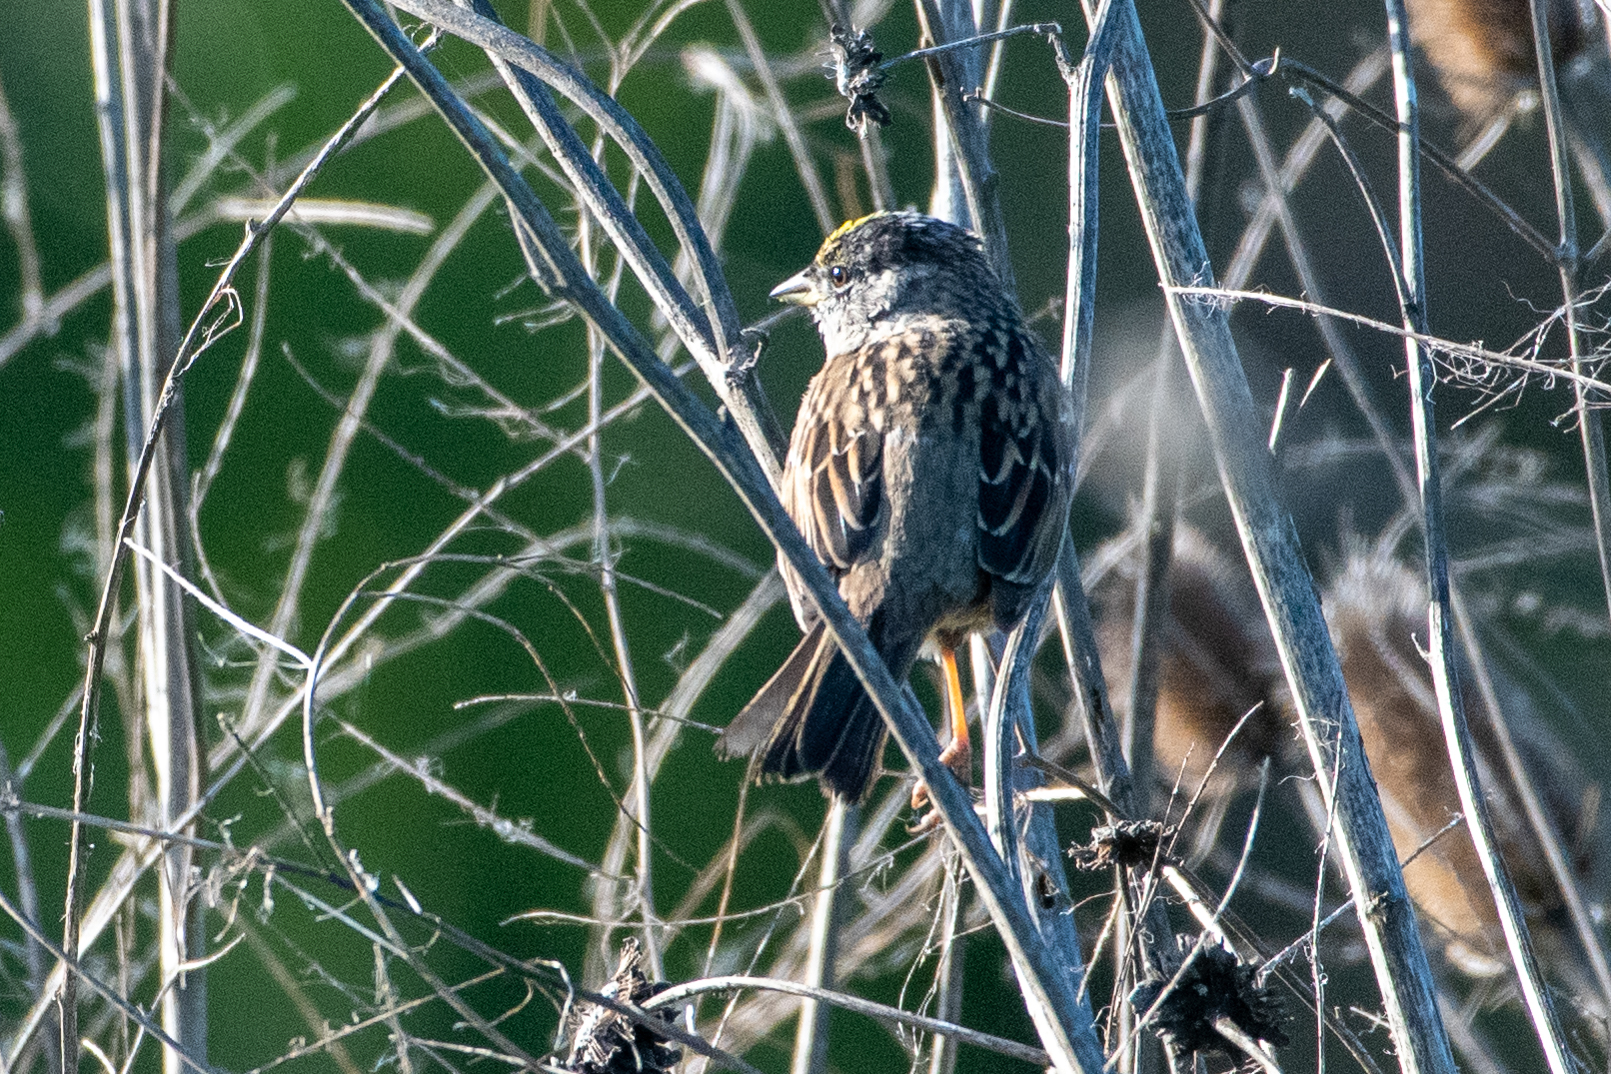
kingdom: Animalia
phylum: Chordata
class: Aves
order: Passeriformes
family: Passerellidae
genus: Zonotrichia
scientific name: Zonotrichia atricapilla
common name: Golden-crowned sparrow
